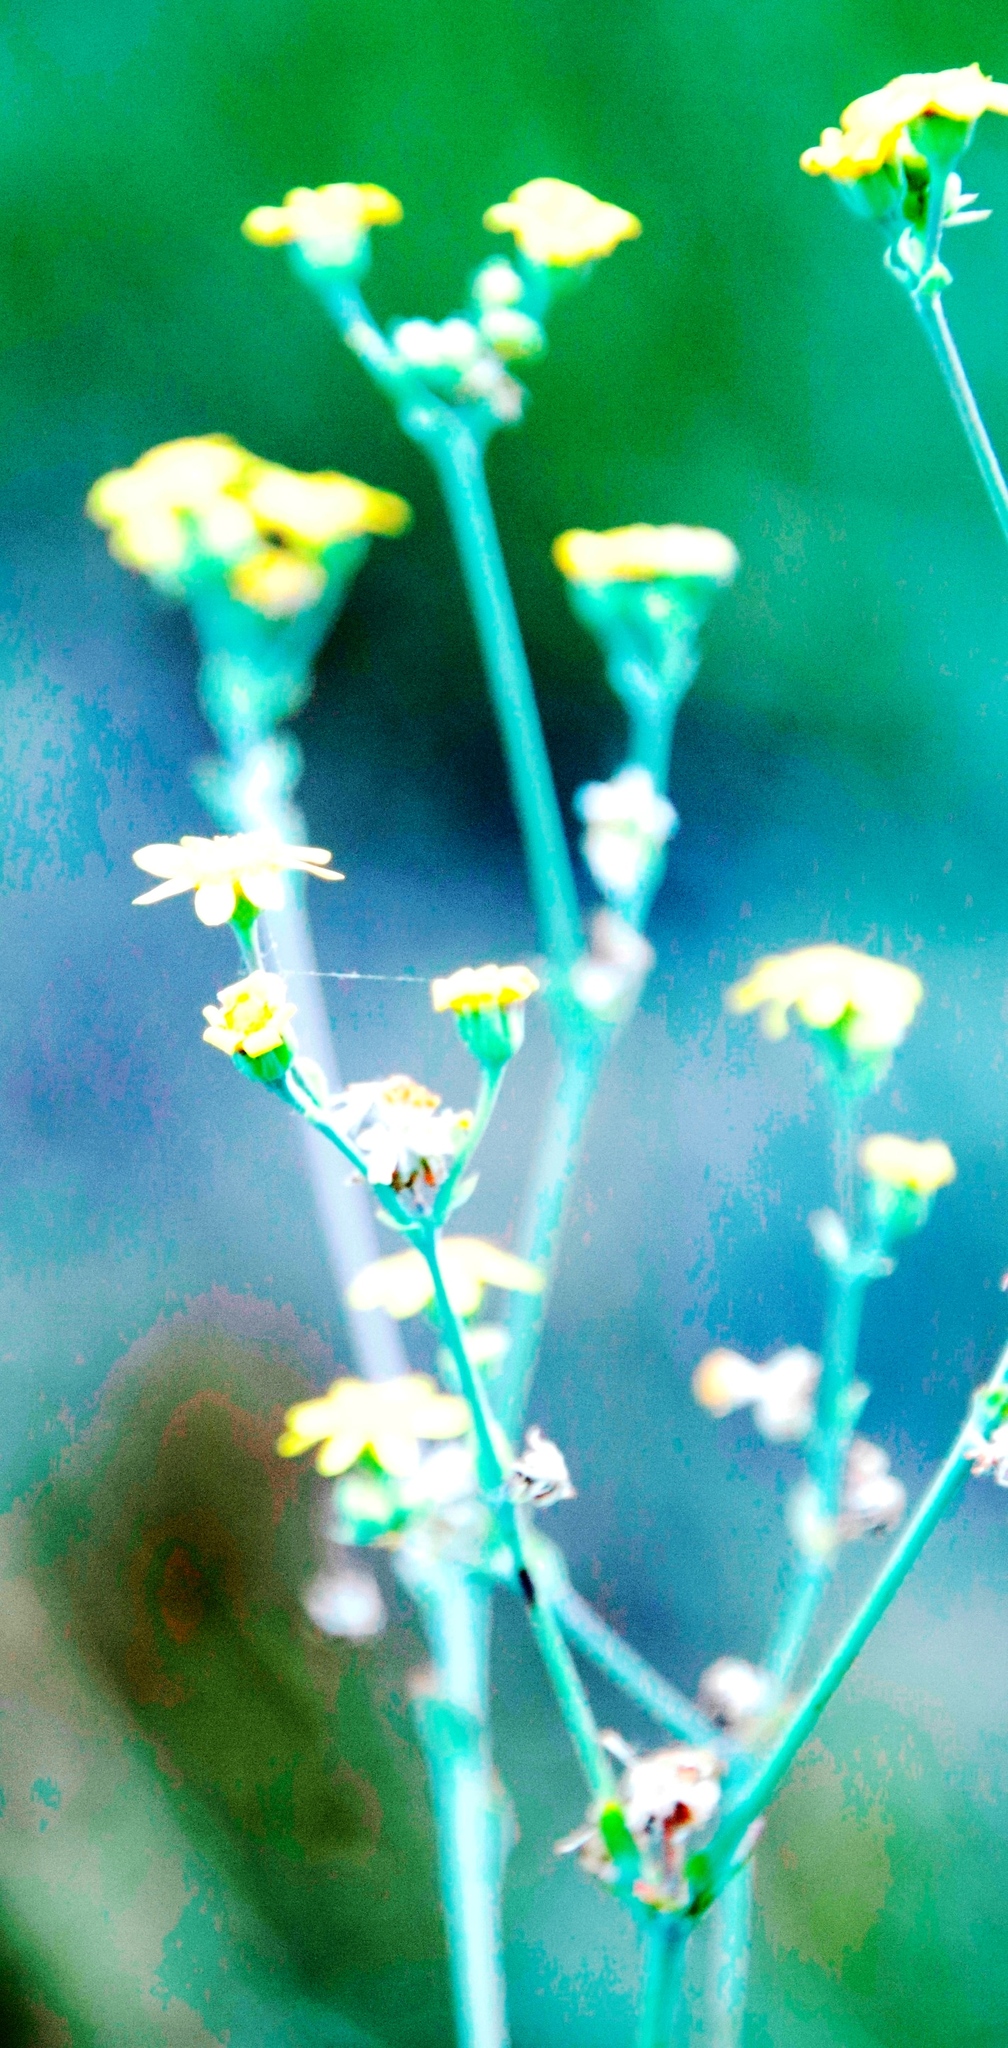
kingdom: Plantae
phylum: Tracheophyta
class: Magnoliopsida
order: Asterales
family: Asteraceae
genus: Othonna
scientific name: Othonna quinquedentata
